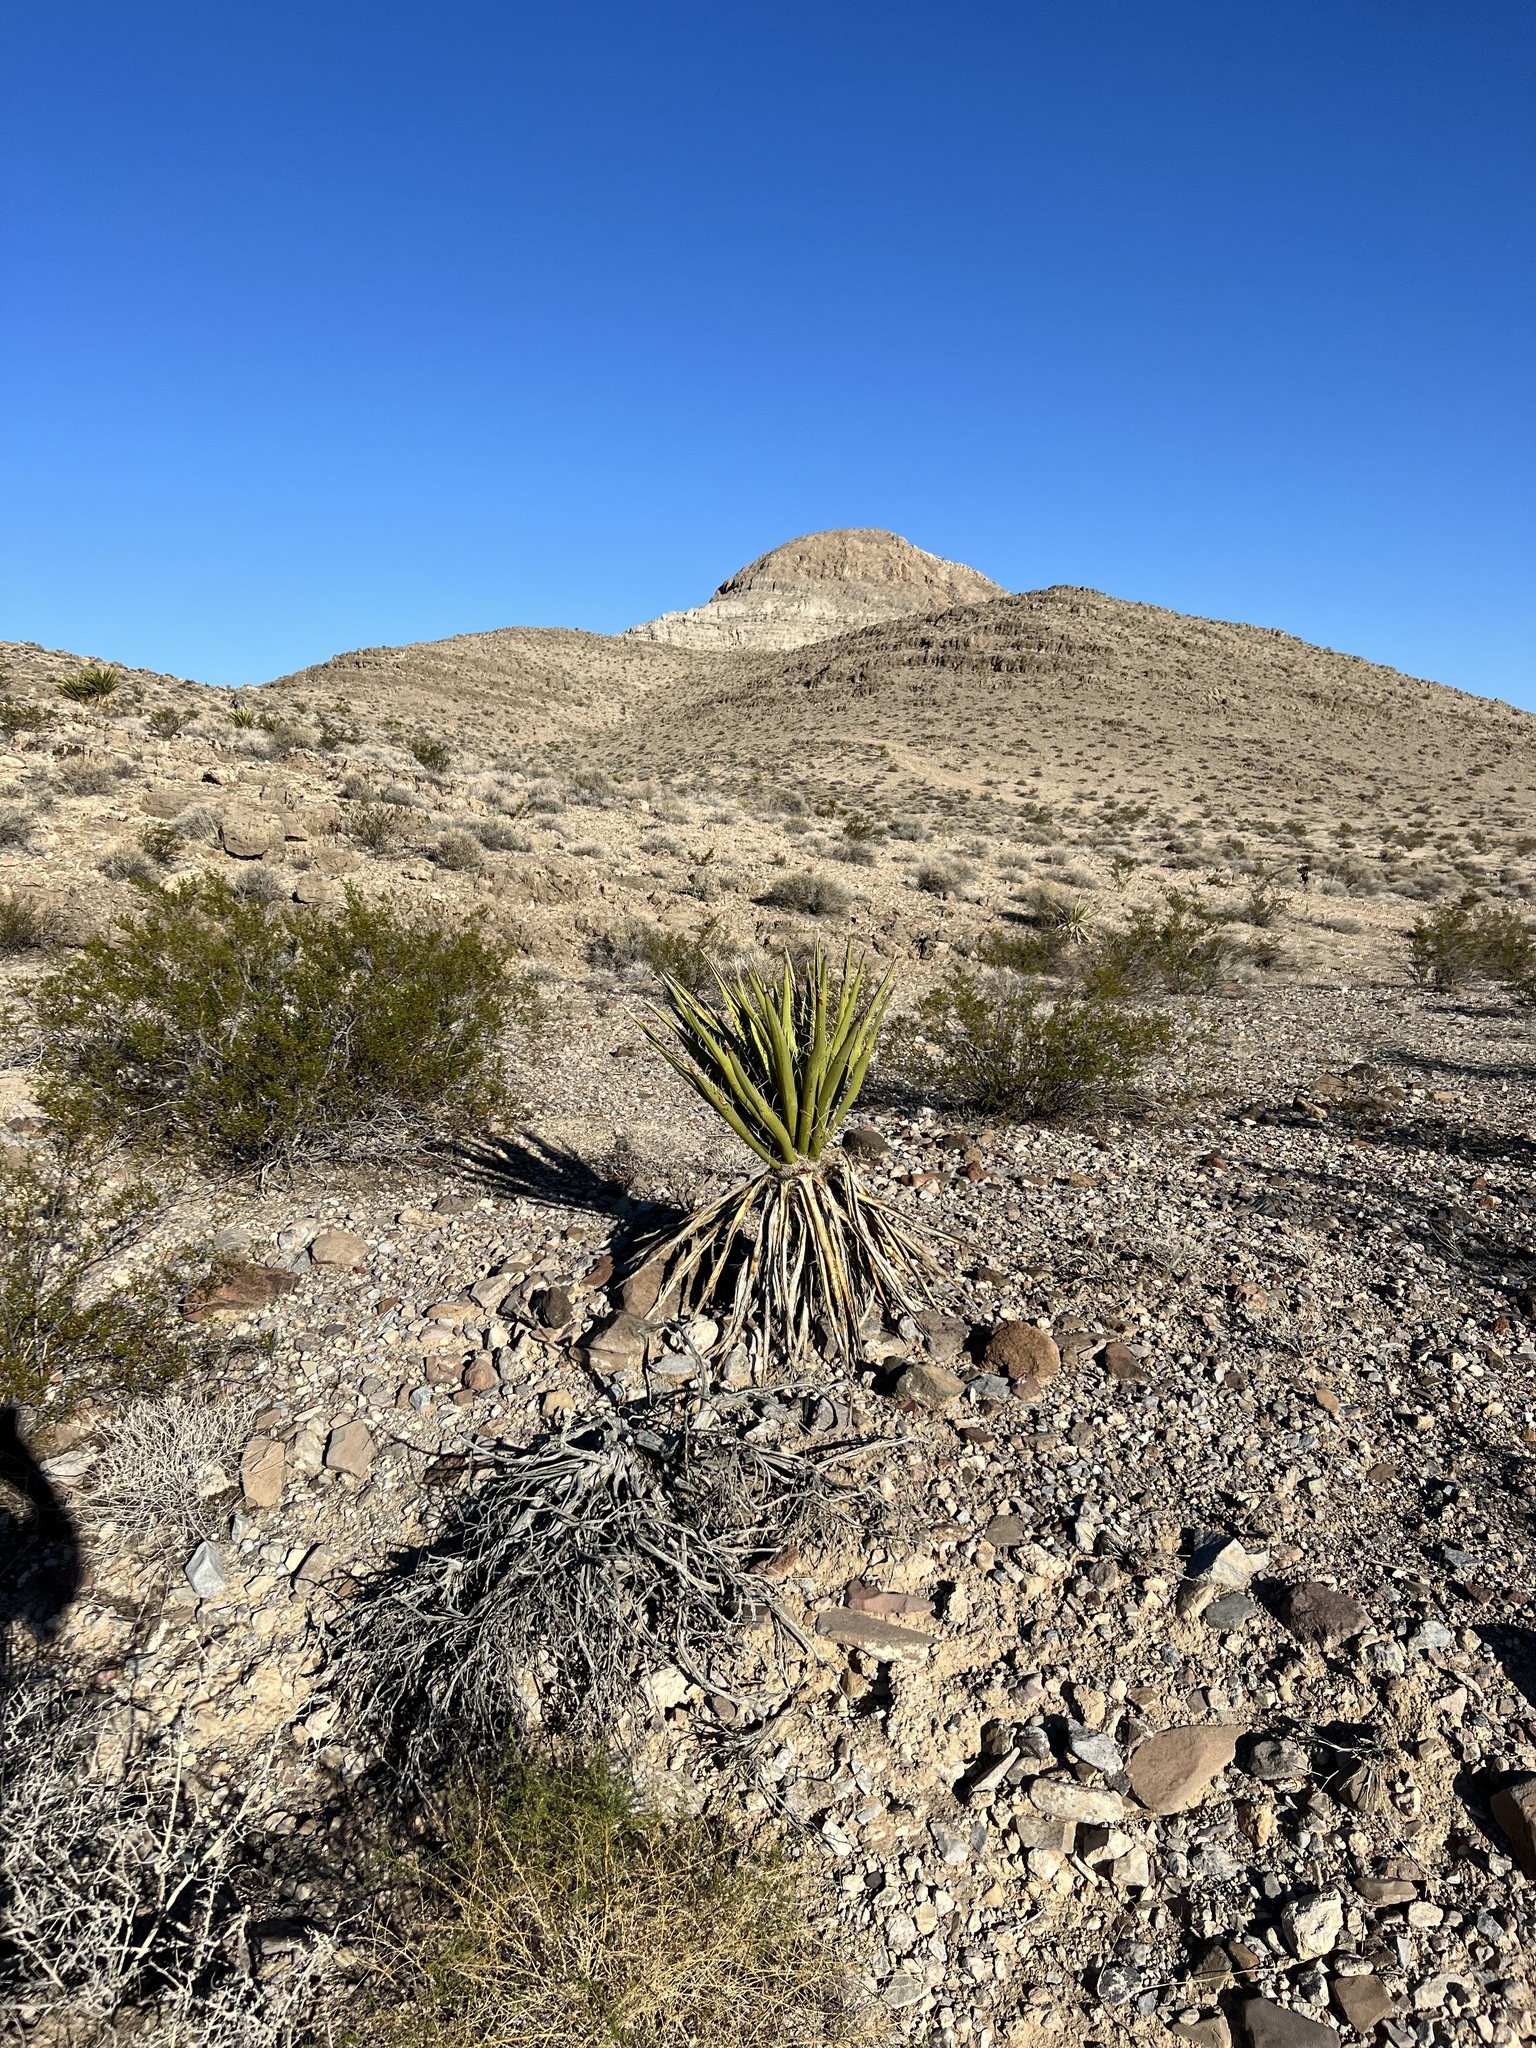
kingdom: Plantae
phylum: Tracheophyta
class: Liliopsida
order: Asparagales
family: Asparagaceae
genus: Yucca
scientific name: Yucca schidigera
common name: Mojave yucca
